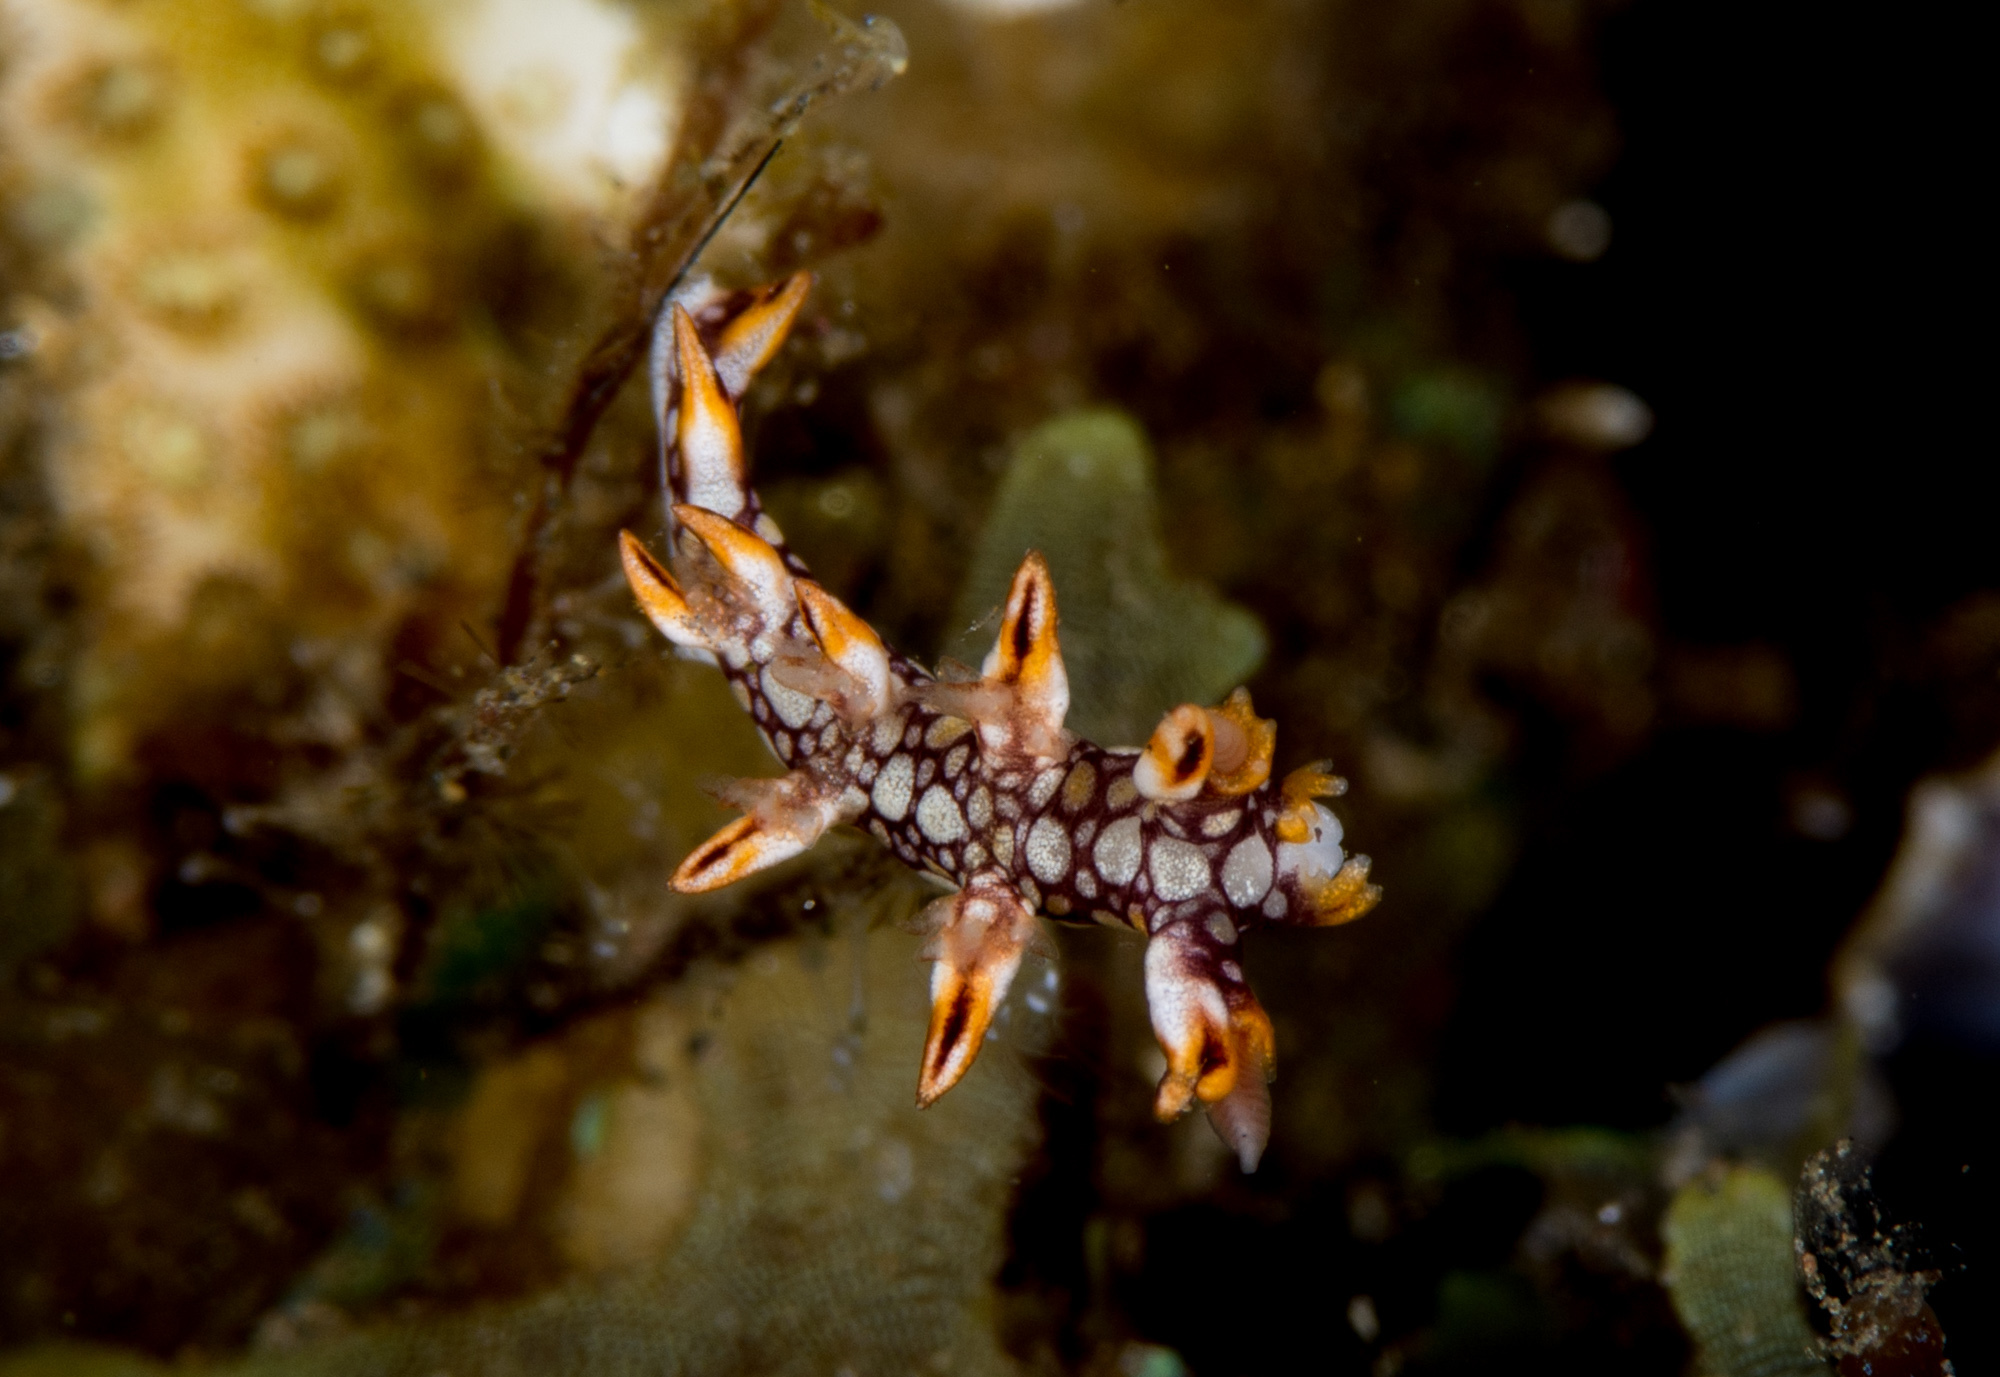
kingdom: Animalia
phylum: Mollusca
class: Gastropoda
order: Nudibranchia
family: Bornellidae
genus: Bornella
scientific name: Bornella anguilla
